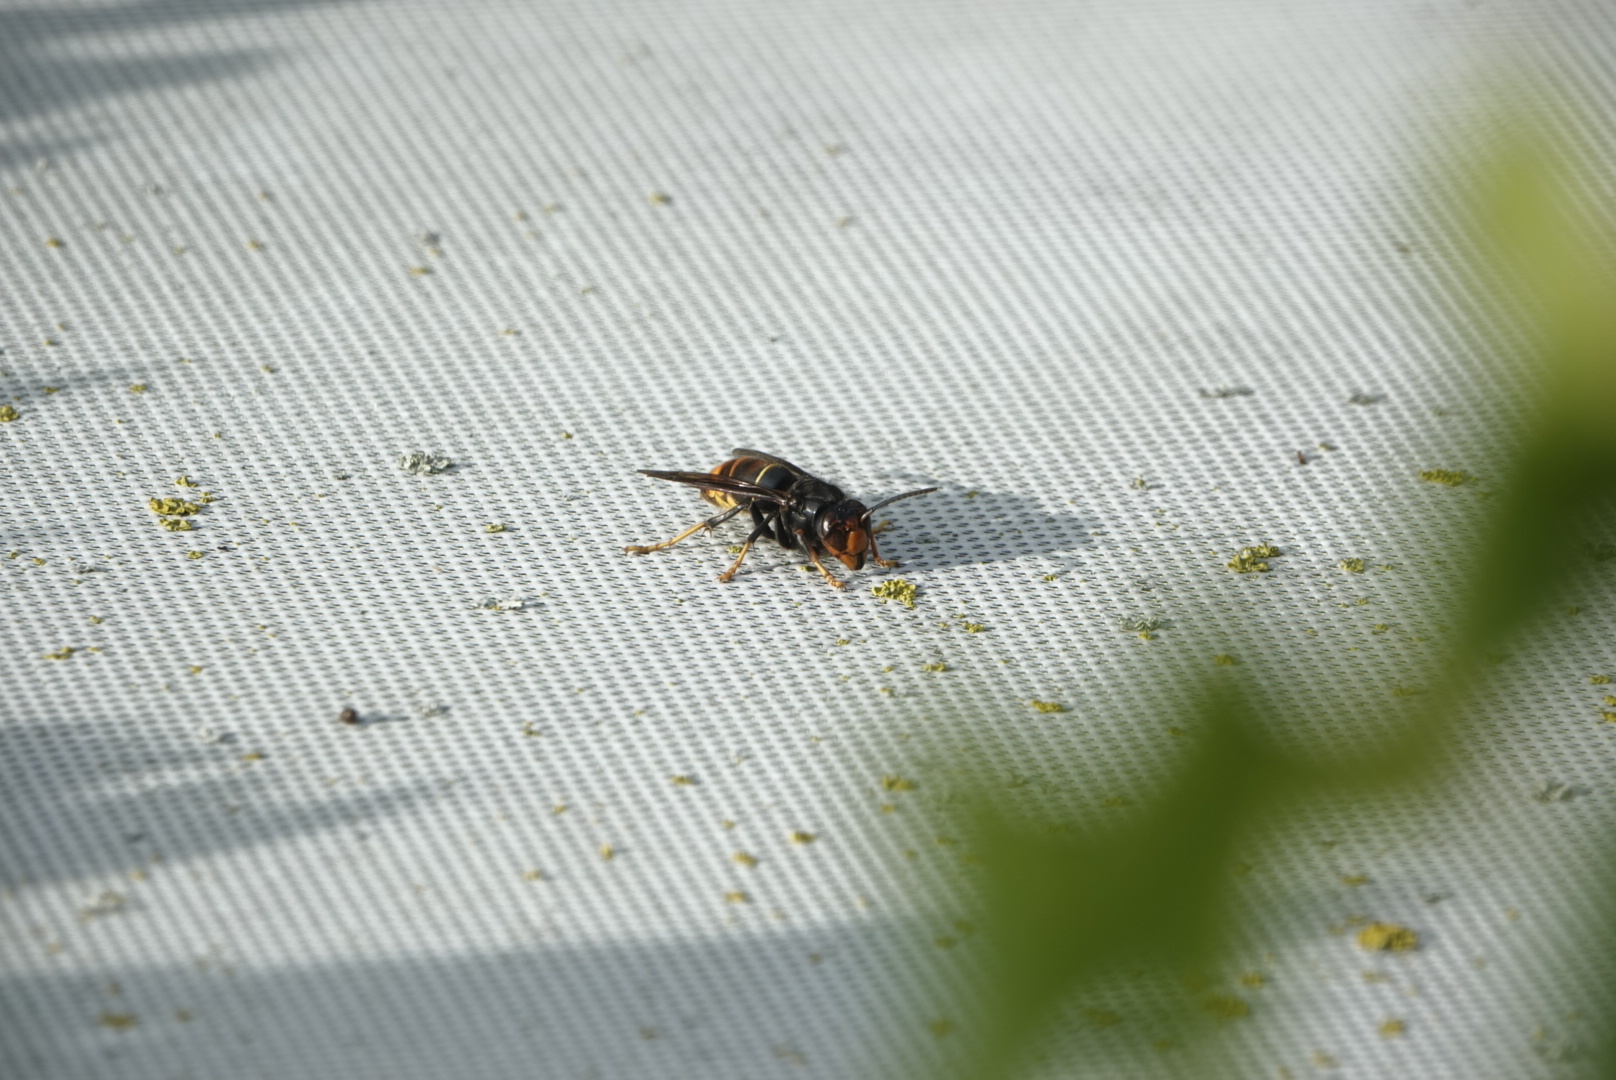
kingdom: Animalia
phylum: Arthropoda
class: Insecta
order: Hymenoptera
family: Vespidae
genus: Vespa
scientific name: Vespa velutina
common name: Asian hornet
